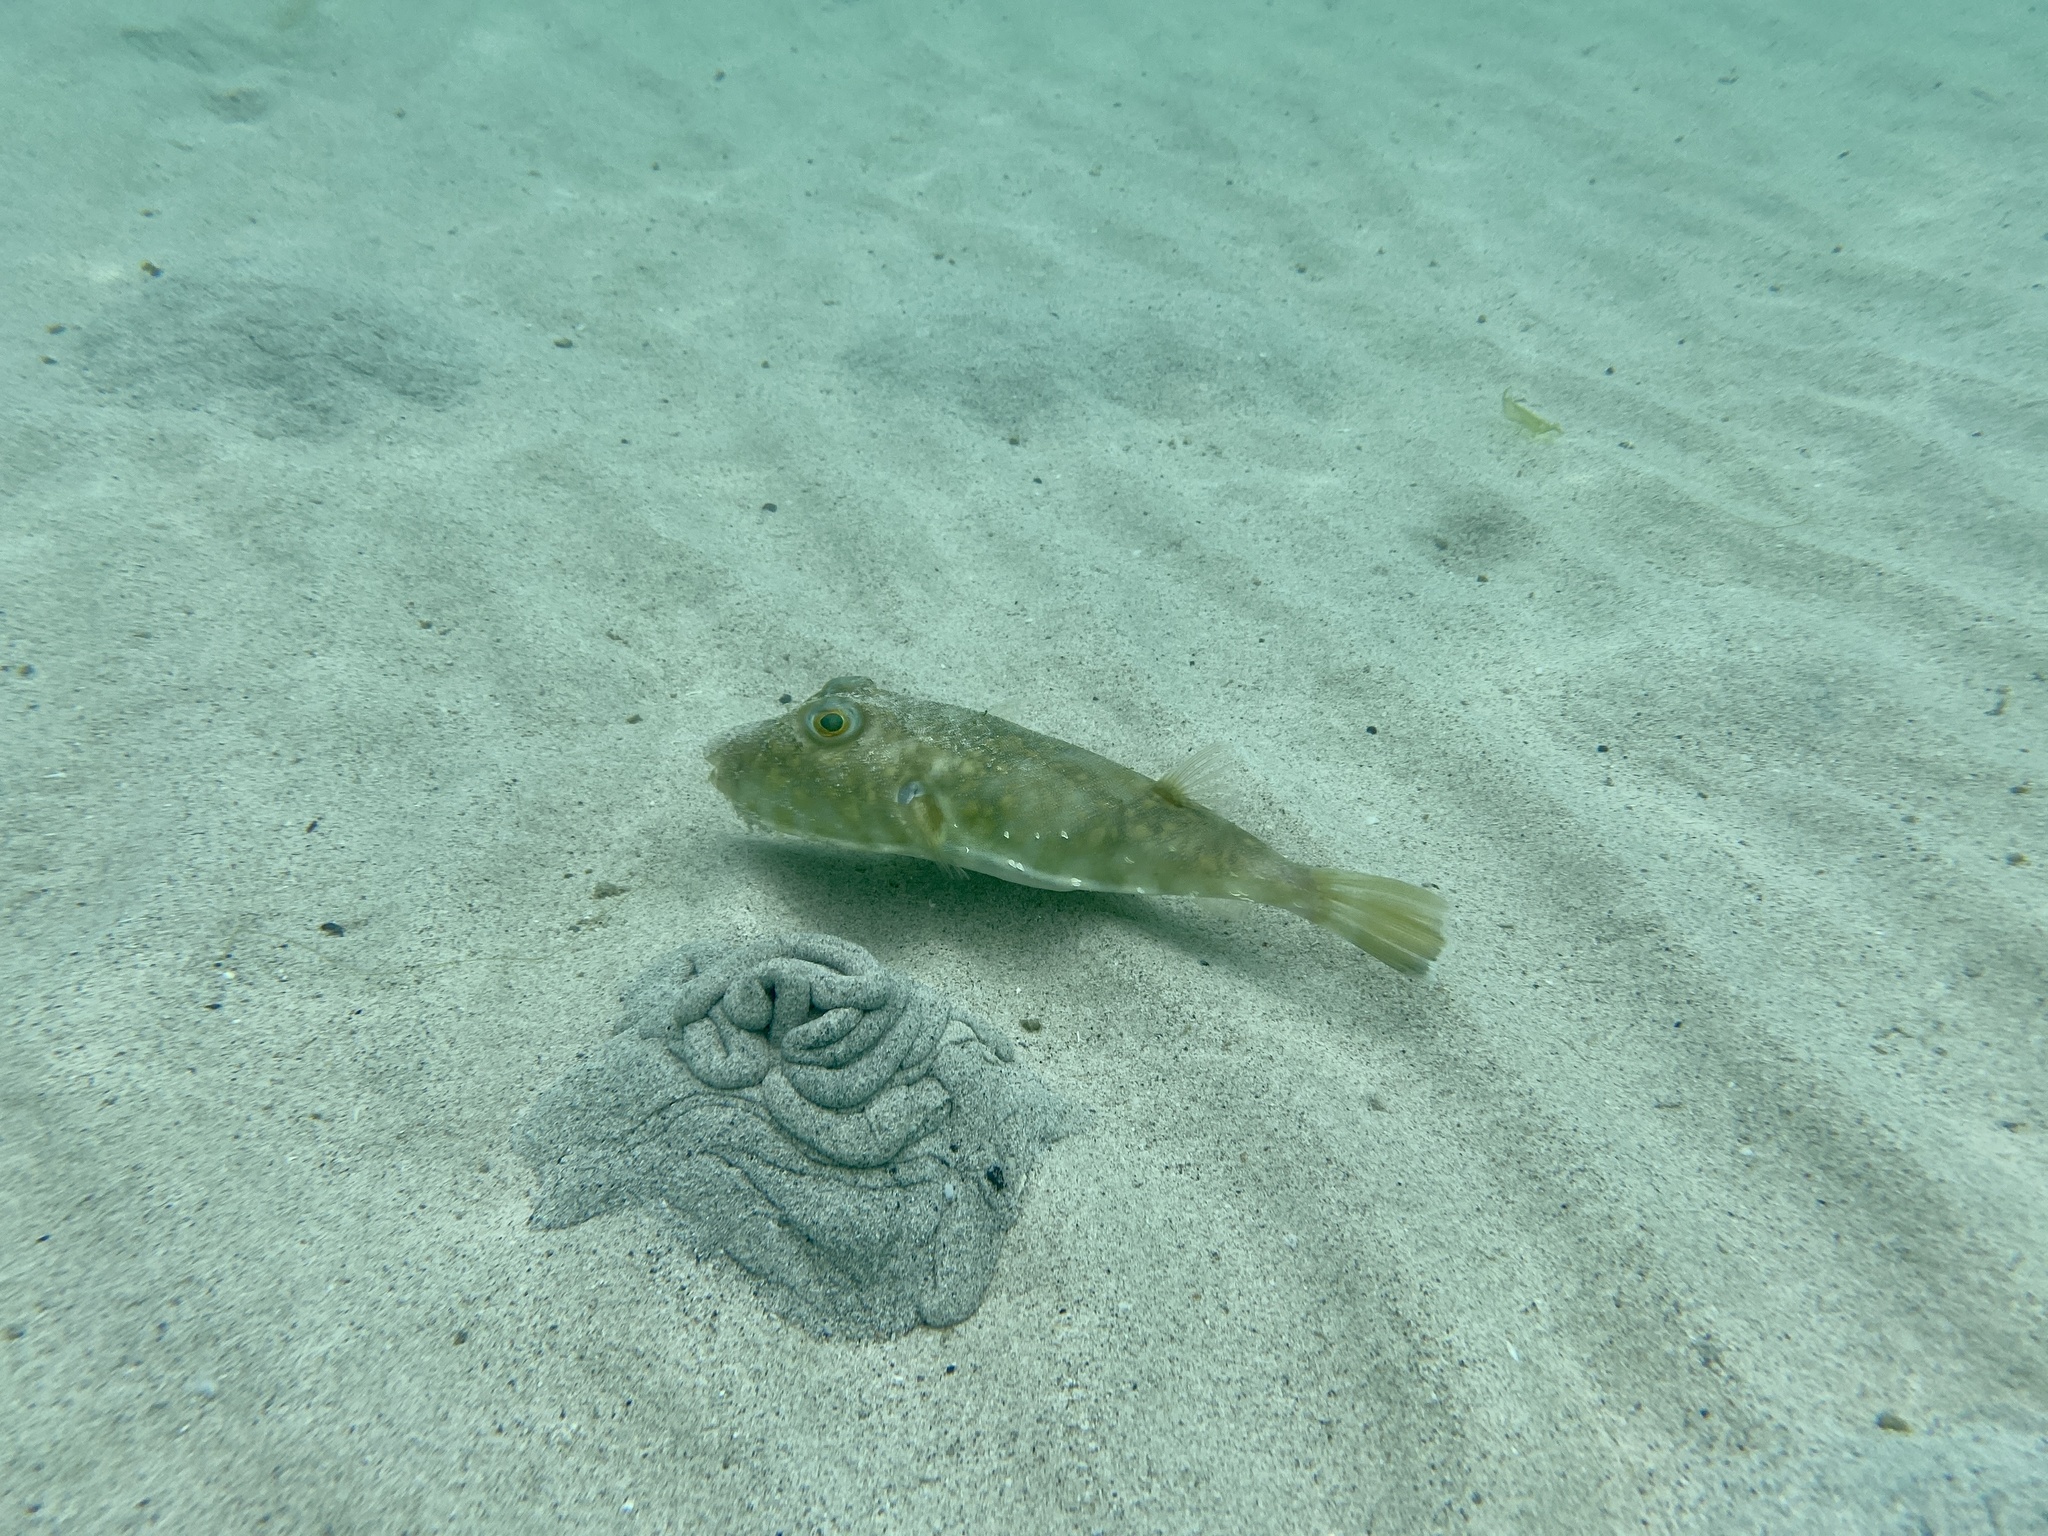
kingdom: Animalia
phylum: Chordata
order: Tetraodontiformes
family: Tetraodontidae
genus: Sphoeroides
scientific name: Sphoeroides lobatus
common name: Longnose puffer
